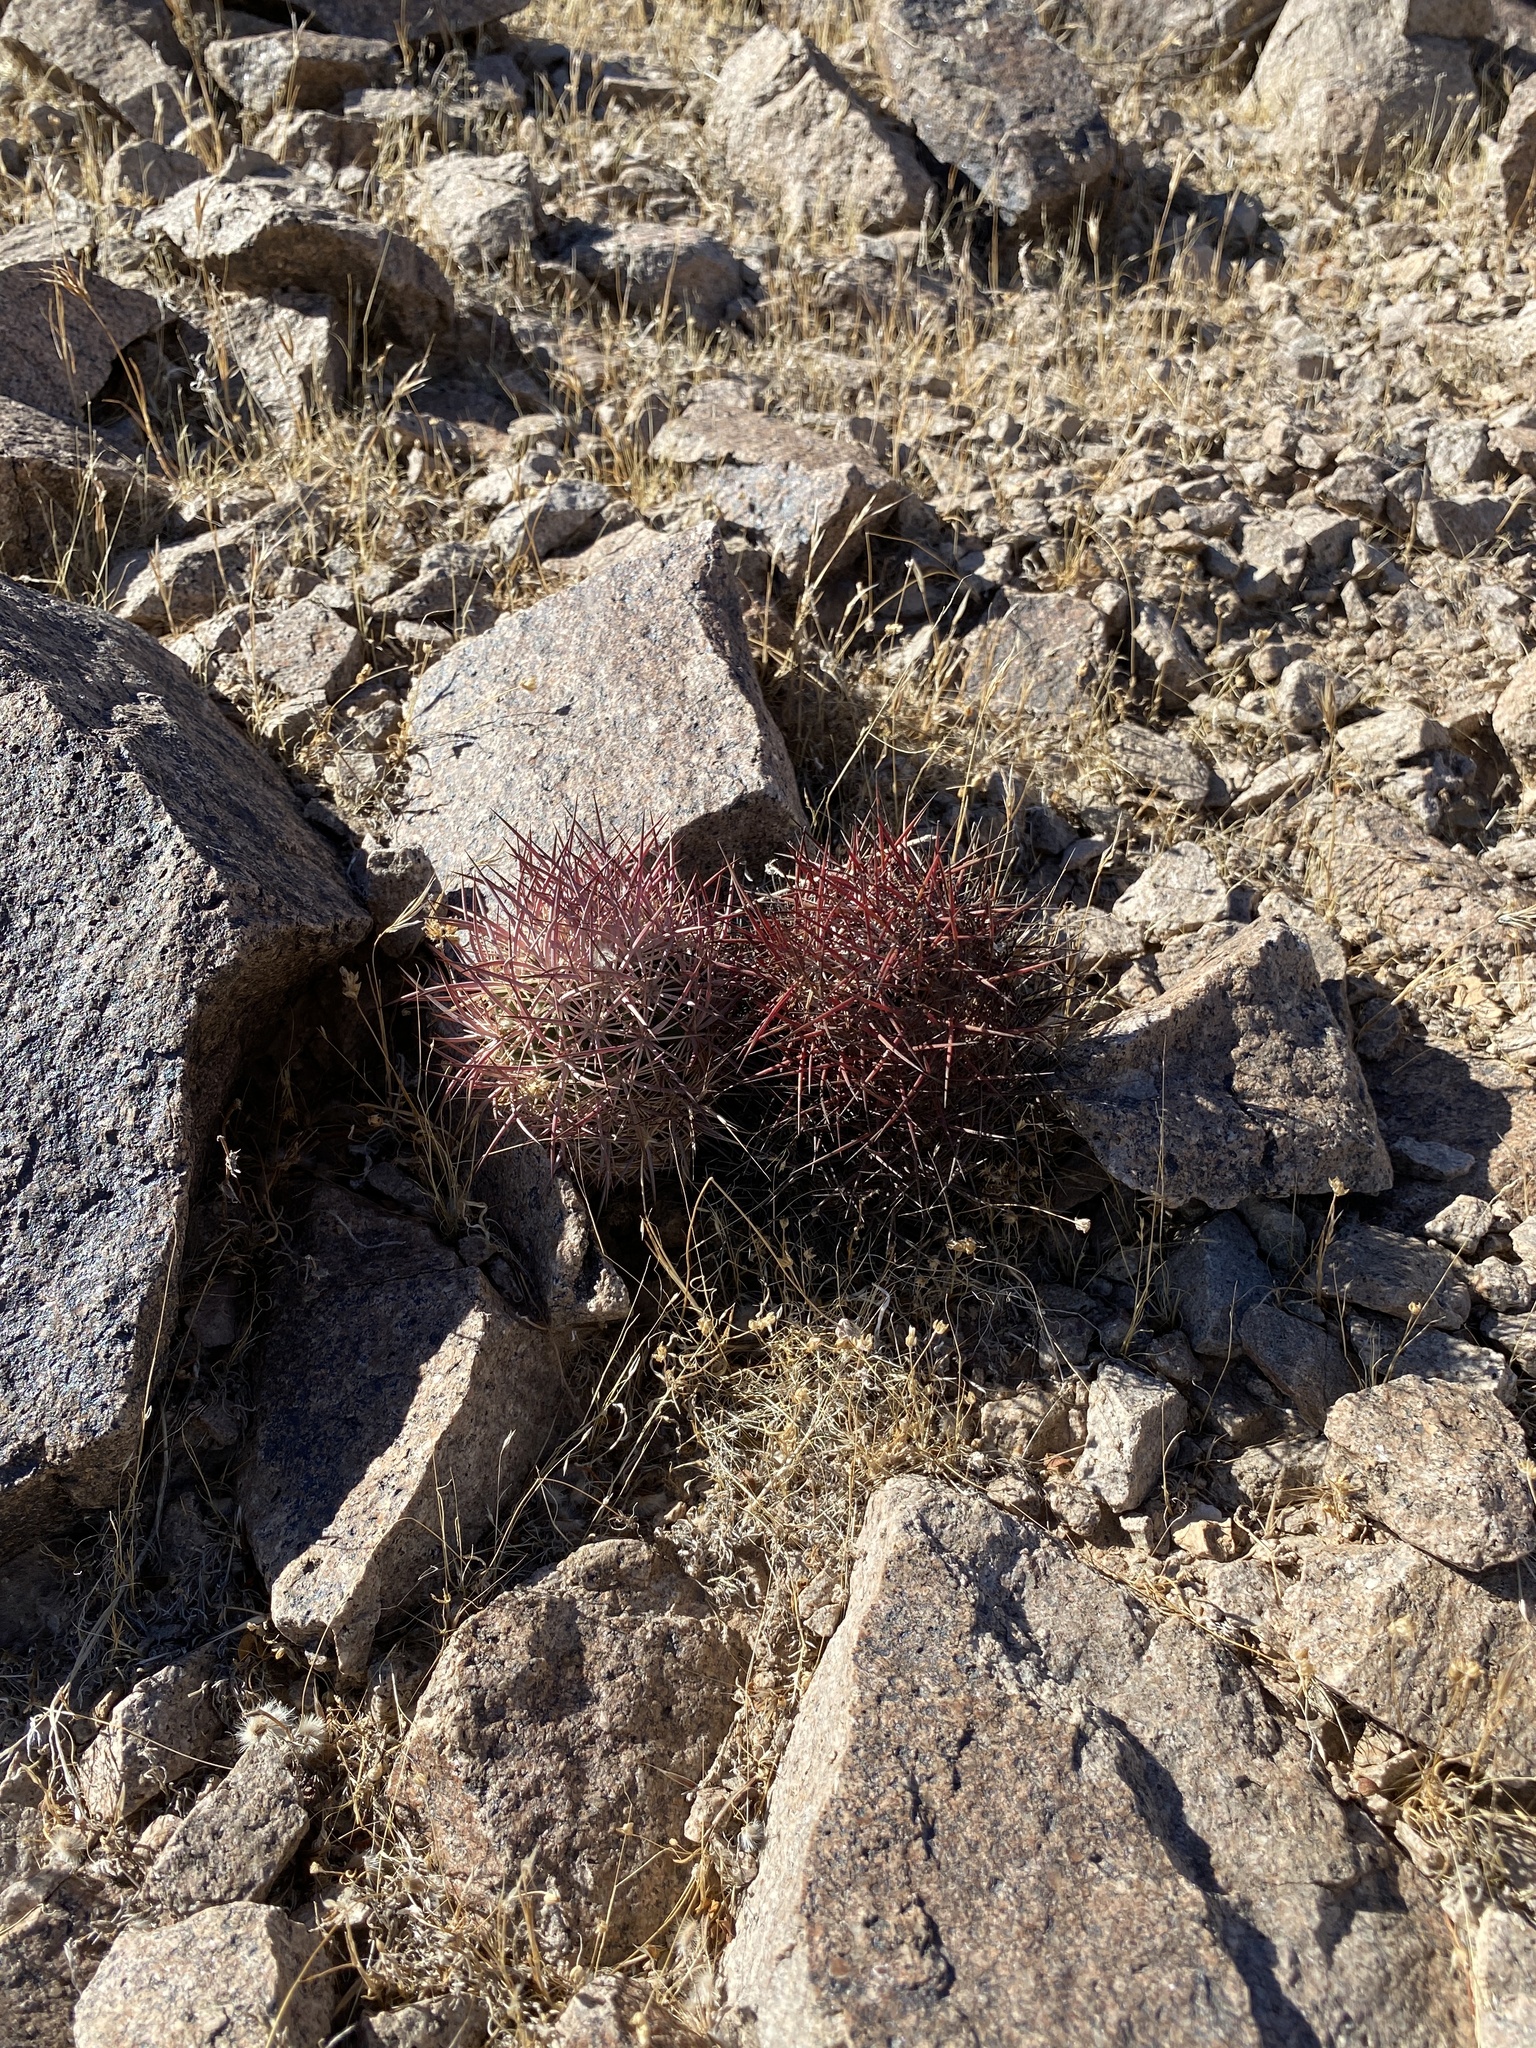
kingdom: Plantae
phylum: Tracheophyta
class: Magnoliopsida
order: Caryophyllales
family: Cactaceae
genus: Sclerocactus
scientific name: Sclerocactus johnsonii
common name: Eight-spine fishhook cactus
